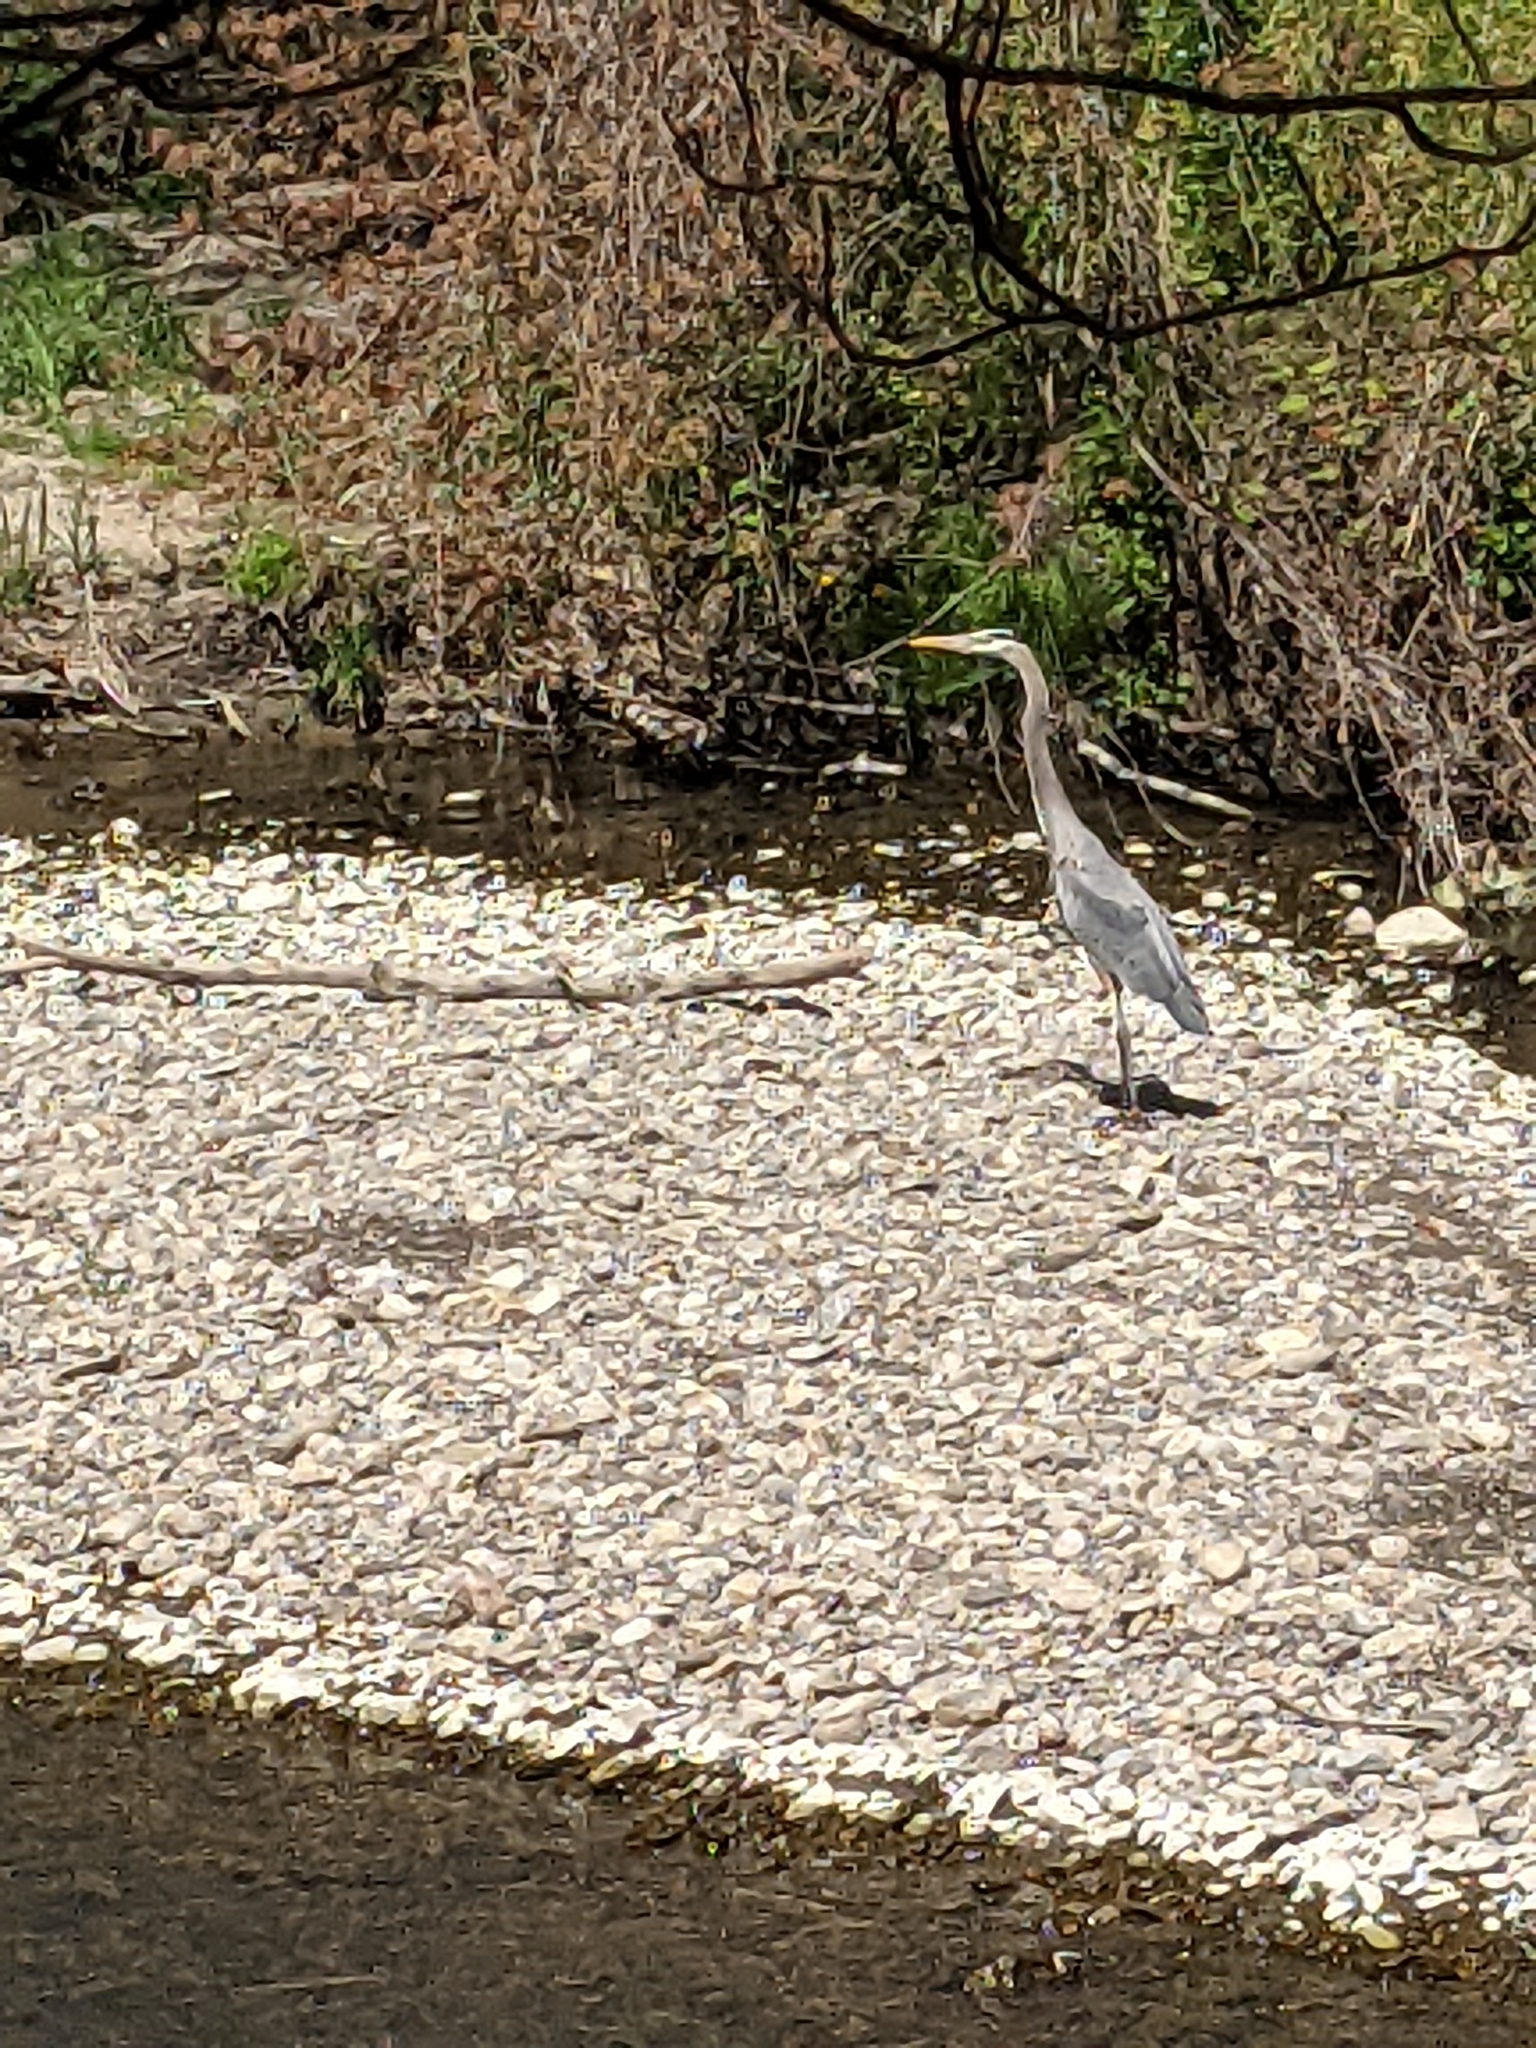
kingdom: Animalia
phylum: Chordata
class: Aves
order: Pelecaniformes
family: Ardeidae
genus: Ardea
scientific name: Ardea herodias
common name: Great blue heron
